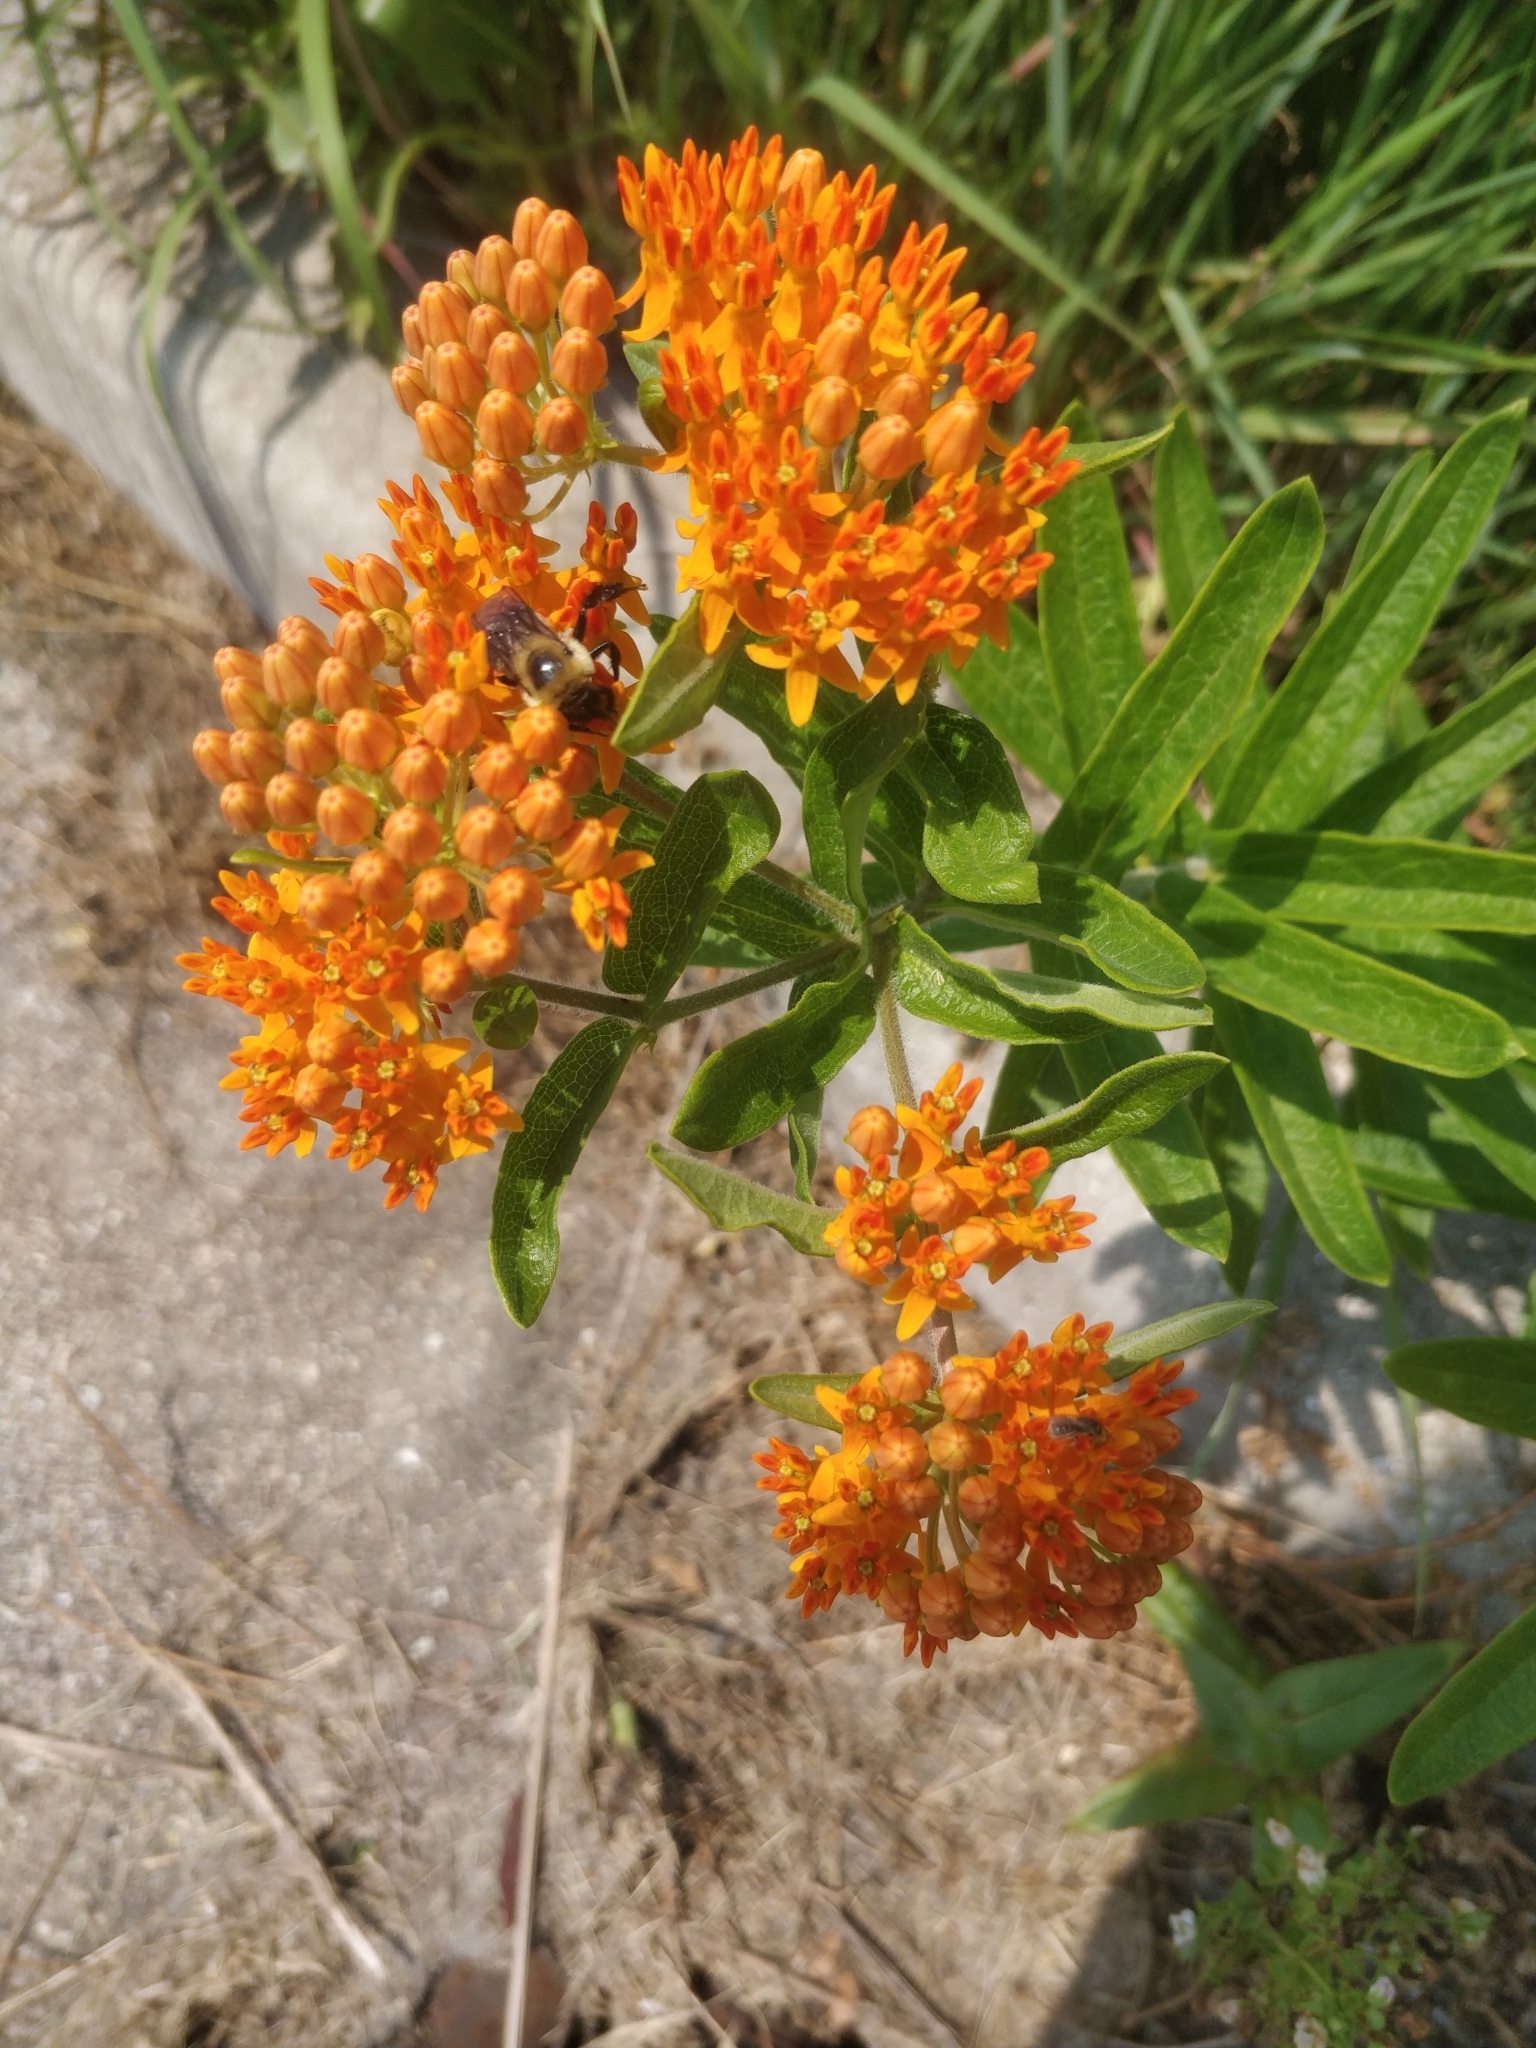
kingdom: Animalia
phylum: Arthropoda
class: Insecta
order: Hymenoptera
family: Apidae
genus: Bombus
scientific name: Bombus griseocollis
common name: Brown-belted bumble bee
